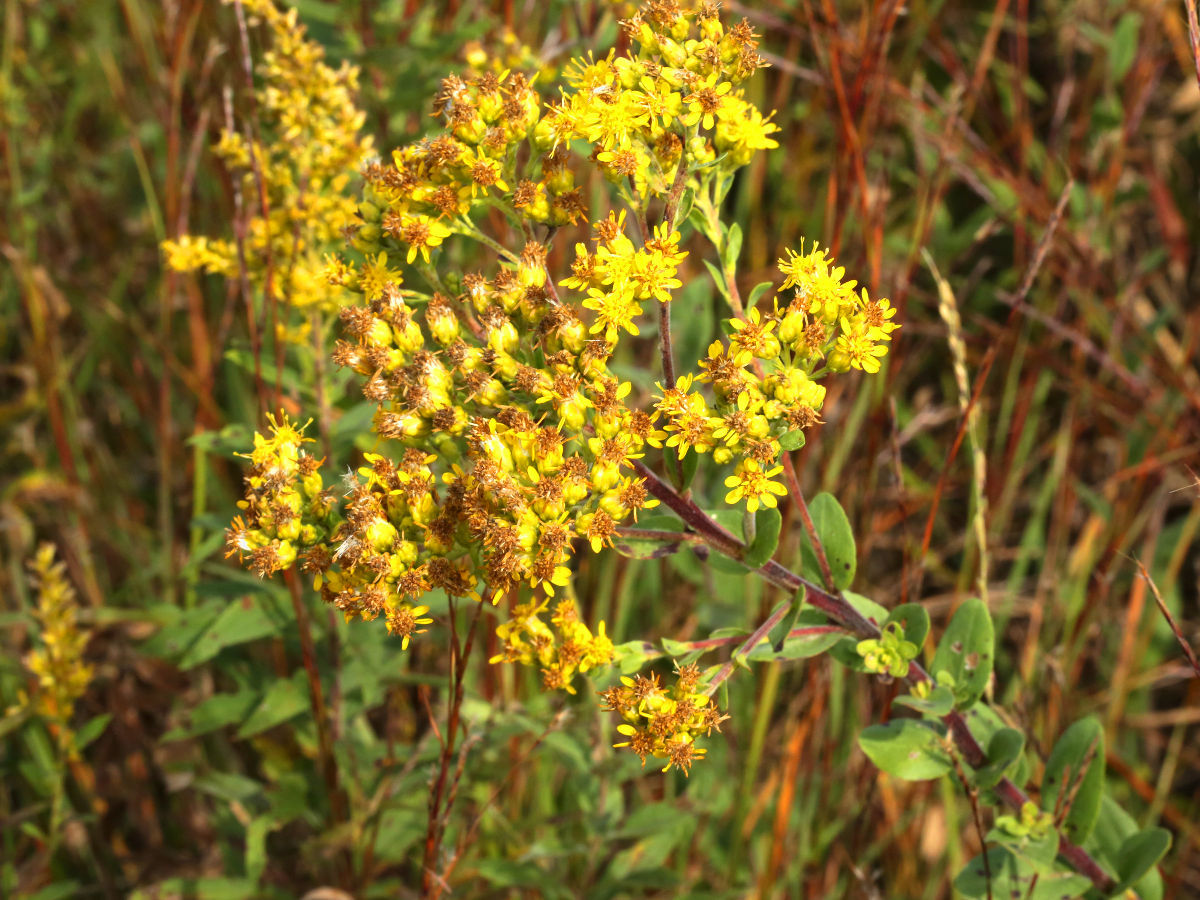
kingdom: Plantae
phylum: Tracheophyta
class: Magnoliopsida
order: Asterales
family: Asteraceae
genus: Solidago
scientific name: Solidago rigida
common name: Rigid goldenrod
